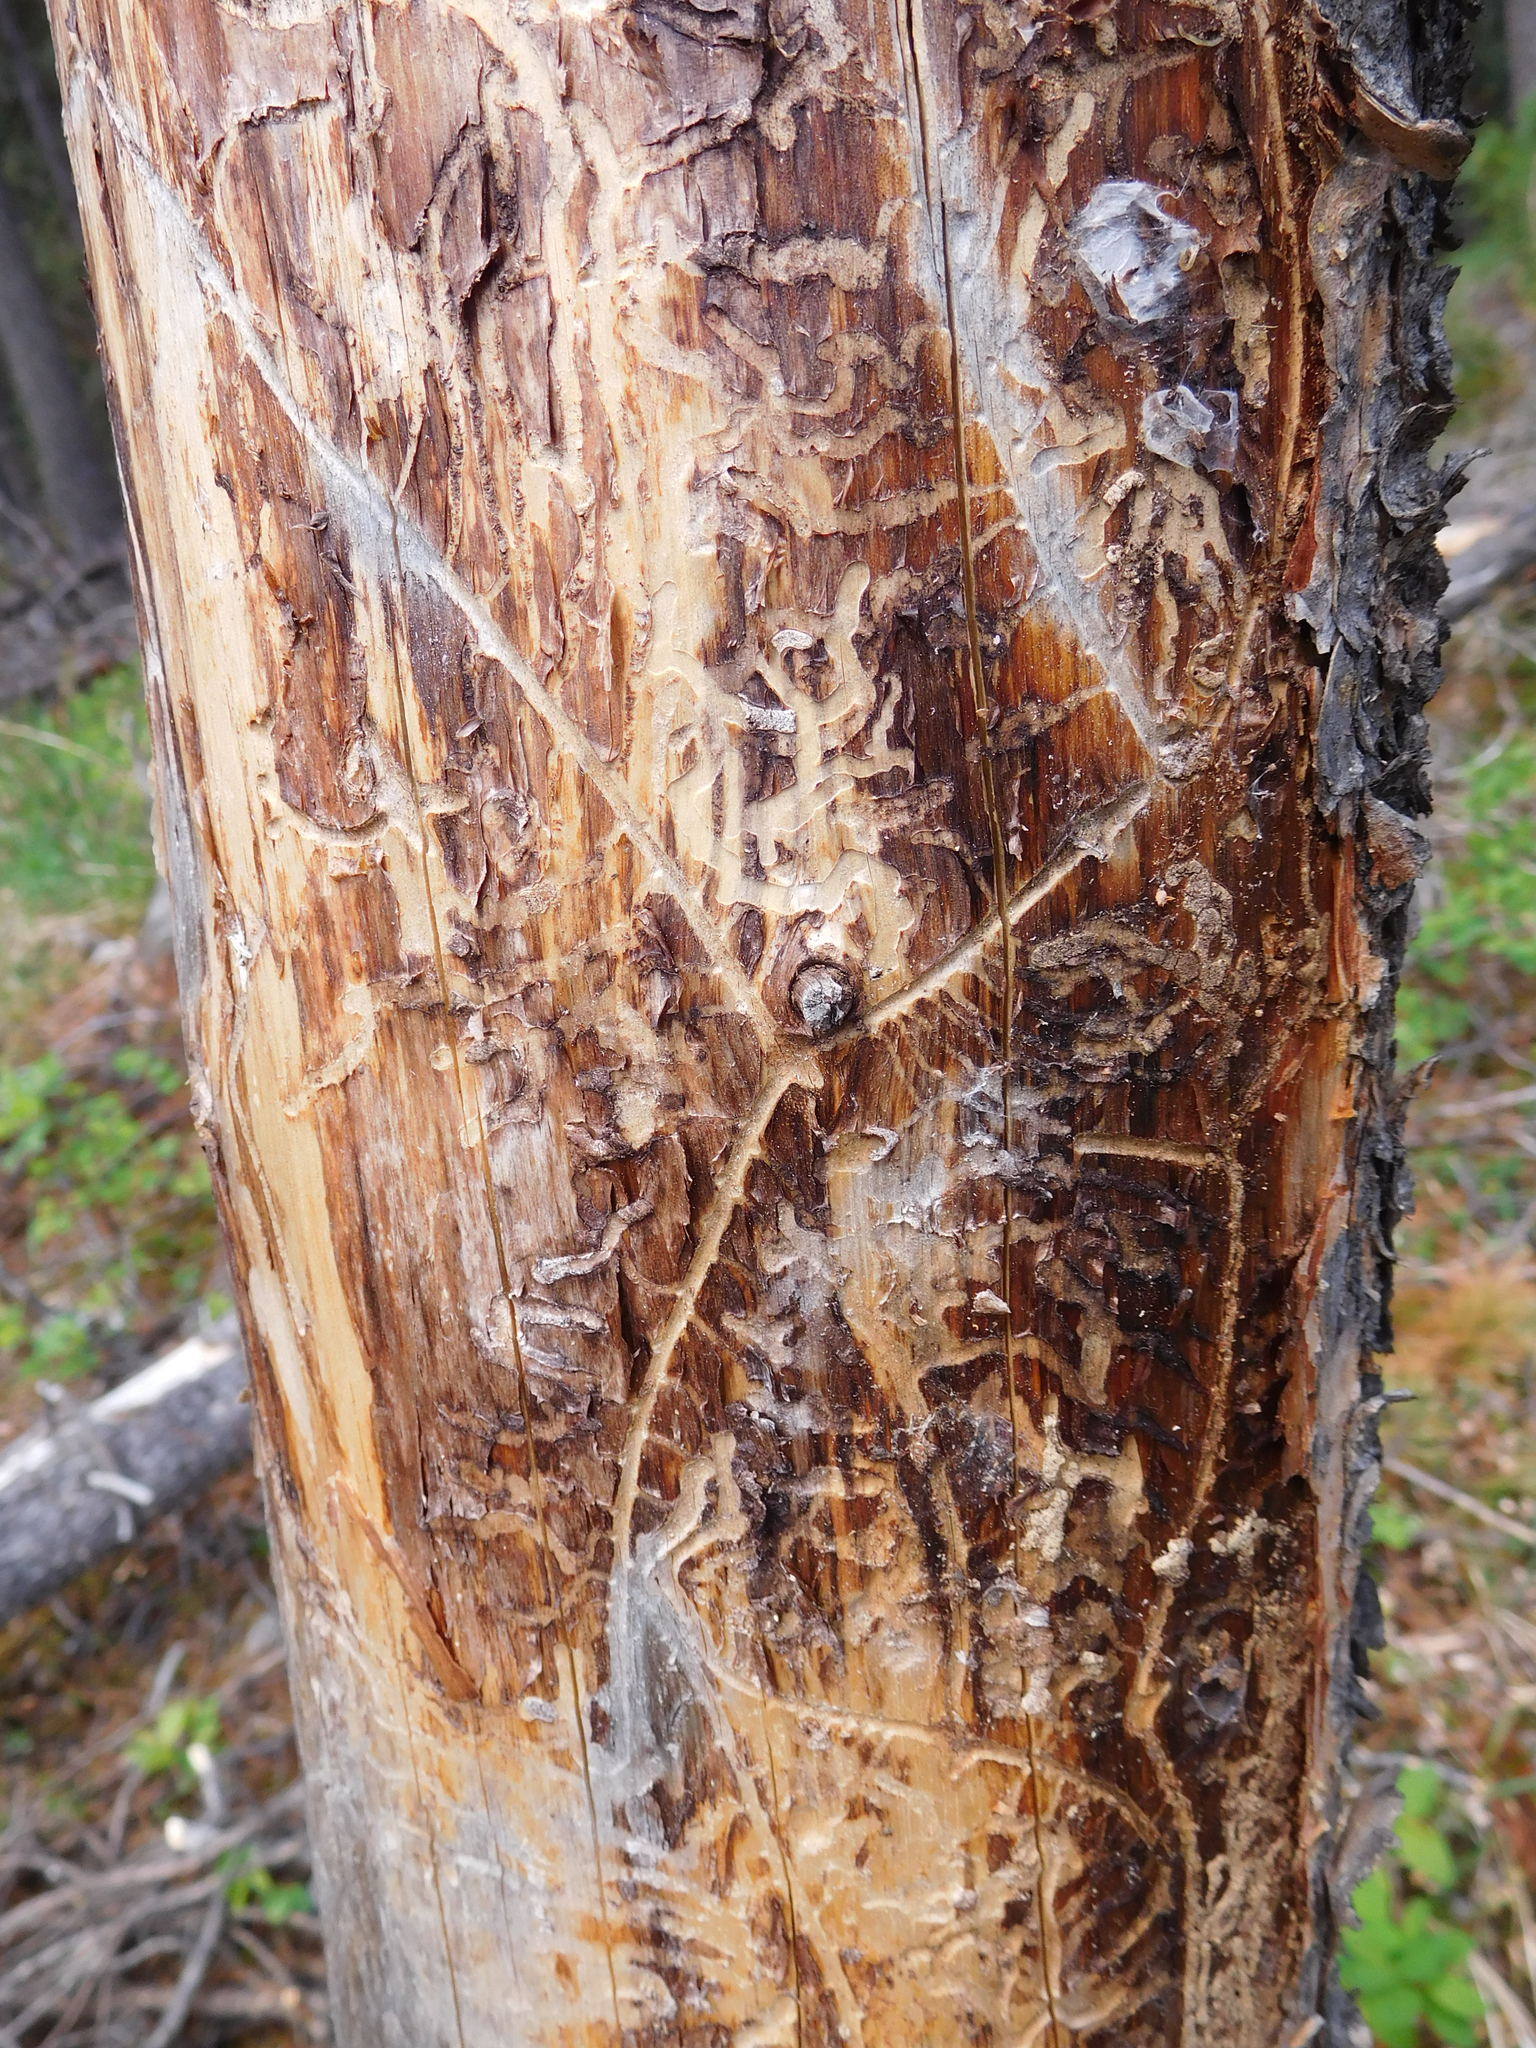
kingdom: Animalia
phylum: Arthropoda
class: Insecta
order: Coleoptera
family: Curculionidae
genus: Ips
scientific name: Ips pini
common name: Pine engraver
